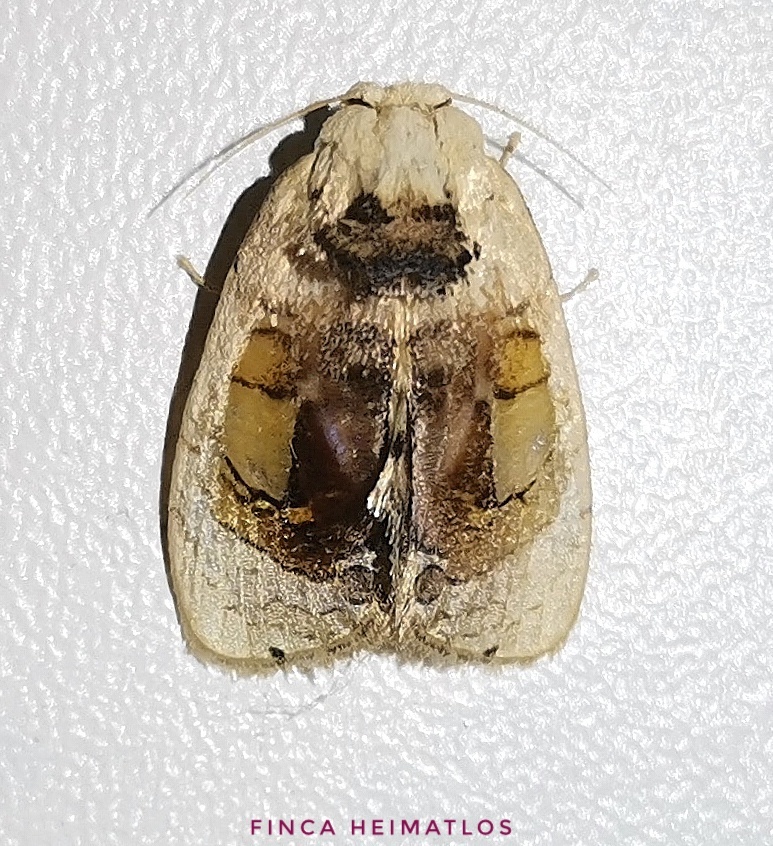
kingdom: Animalia
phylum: Arthropoda
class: Insecta
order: Lepidoptera
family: Psychidae
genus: Arrhenophanes
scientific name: Arrhenophanes volcanica
